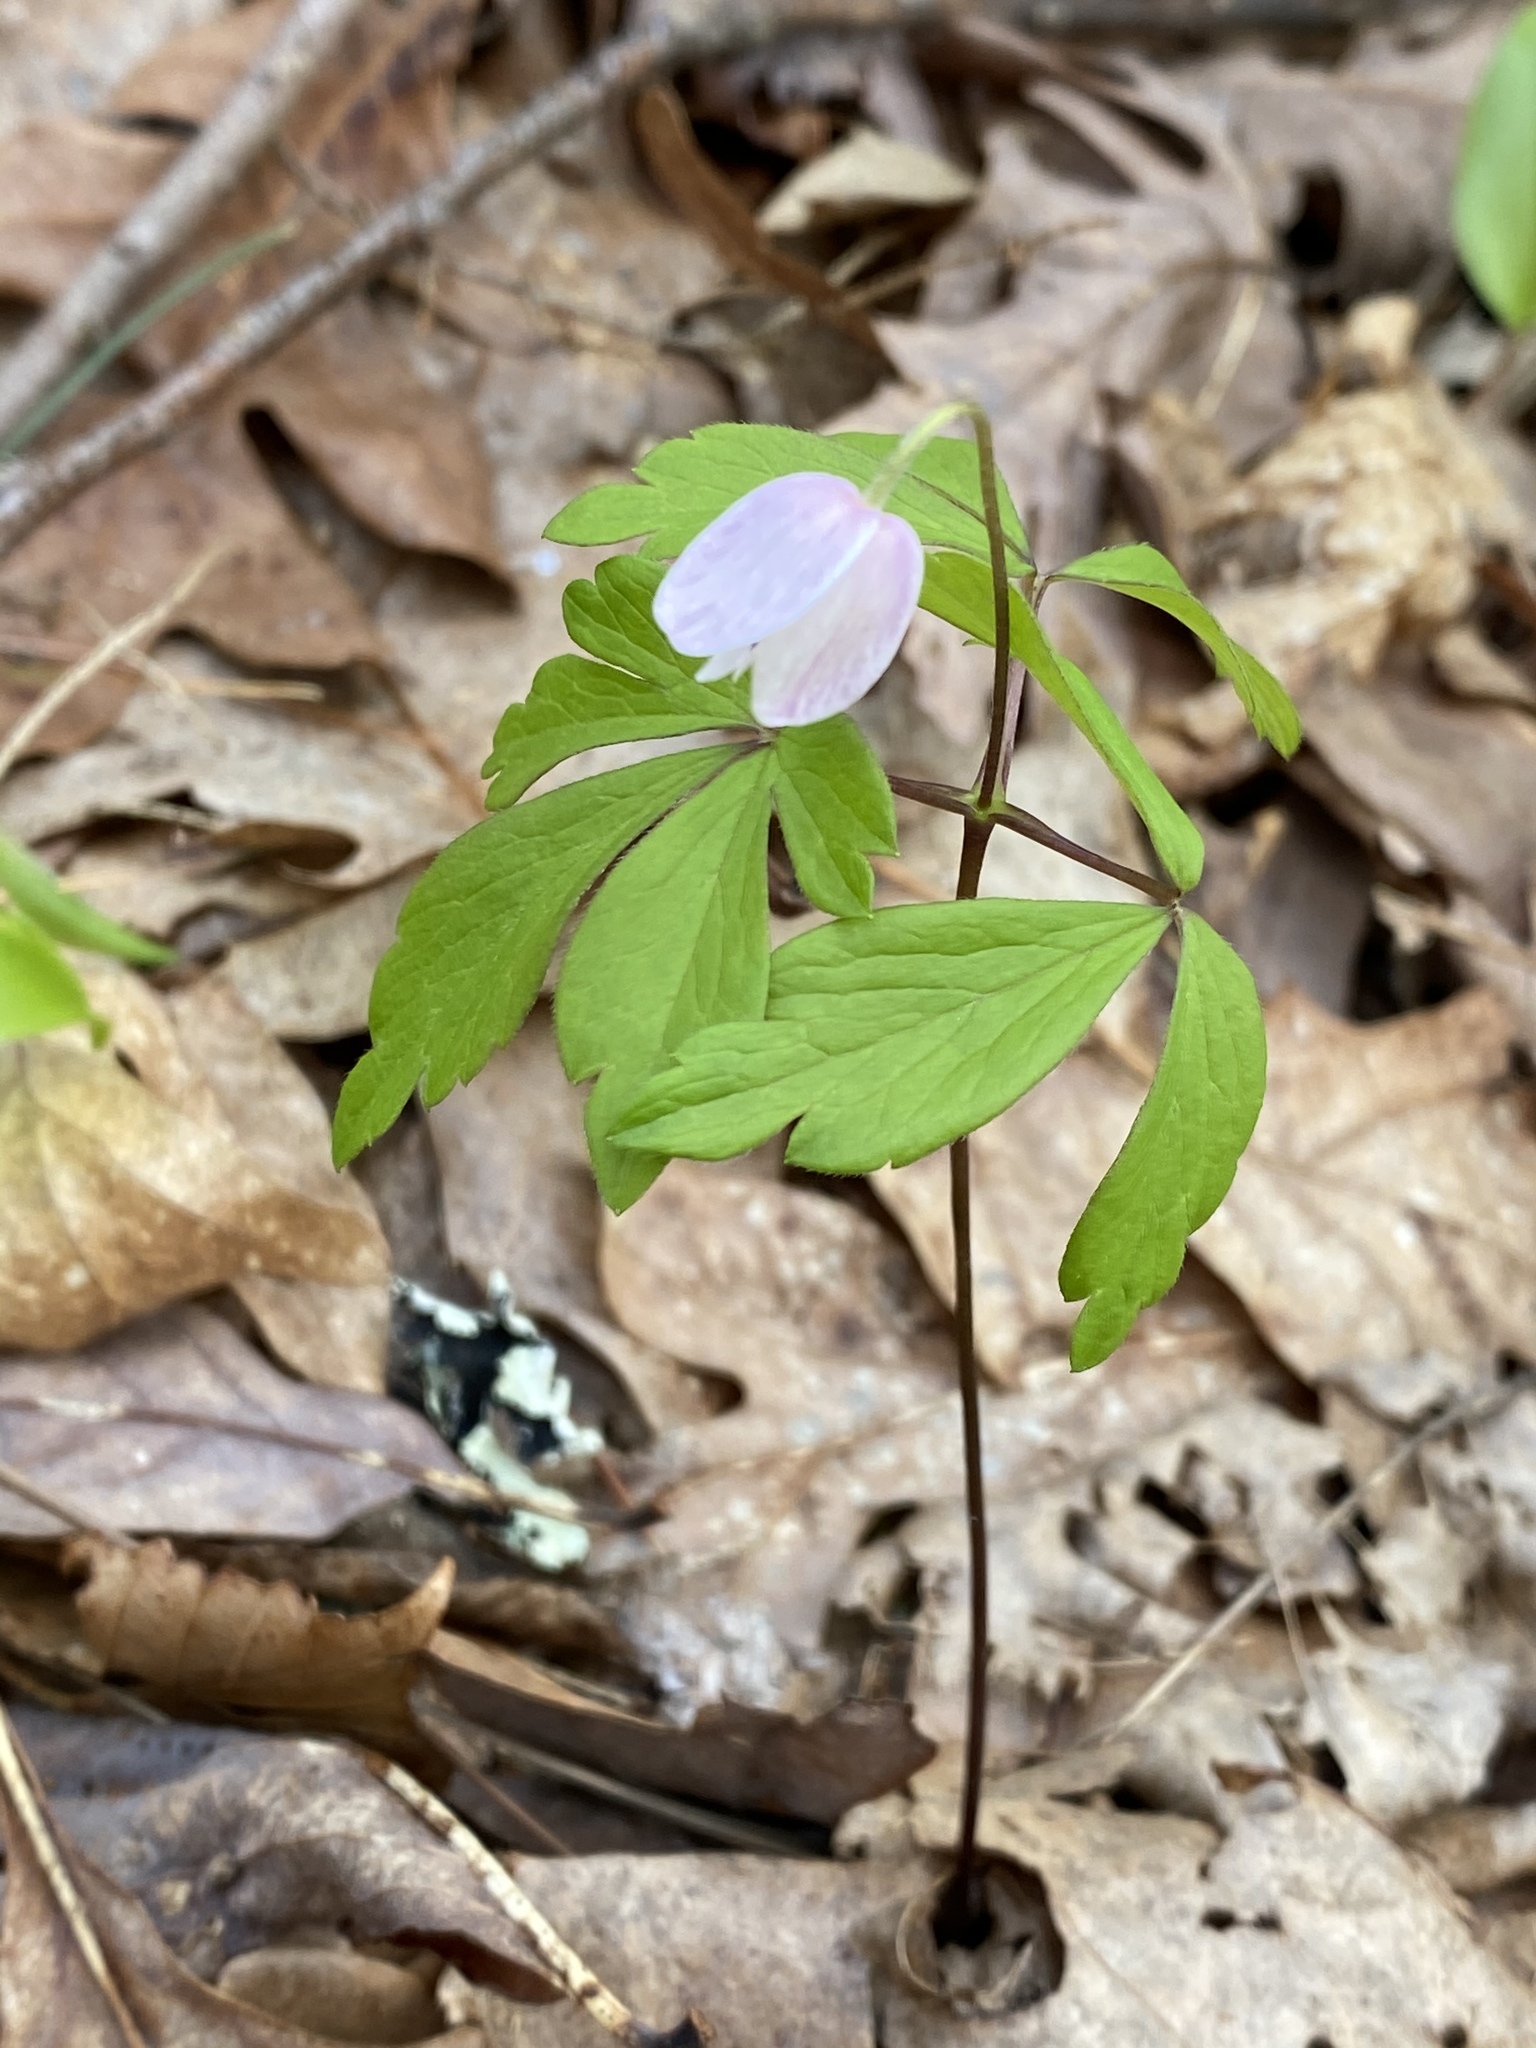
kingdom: Plantae
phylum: Tracheophyta
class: Magnoliopsida
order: Ranunculales
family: Ranunculaceae
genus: Anemone
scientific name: Anemone quinquefolia
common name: Wood anemone
